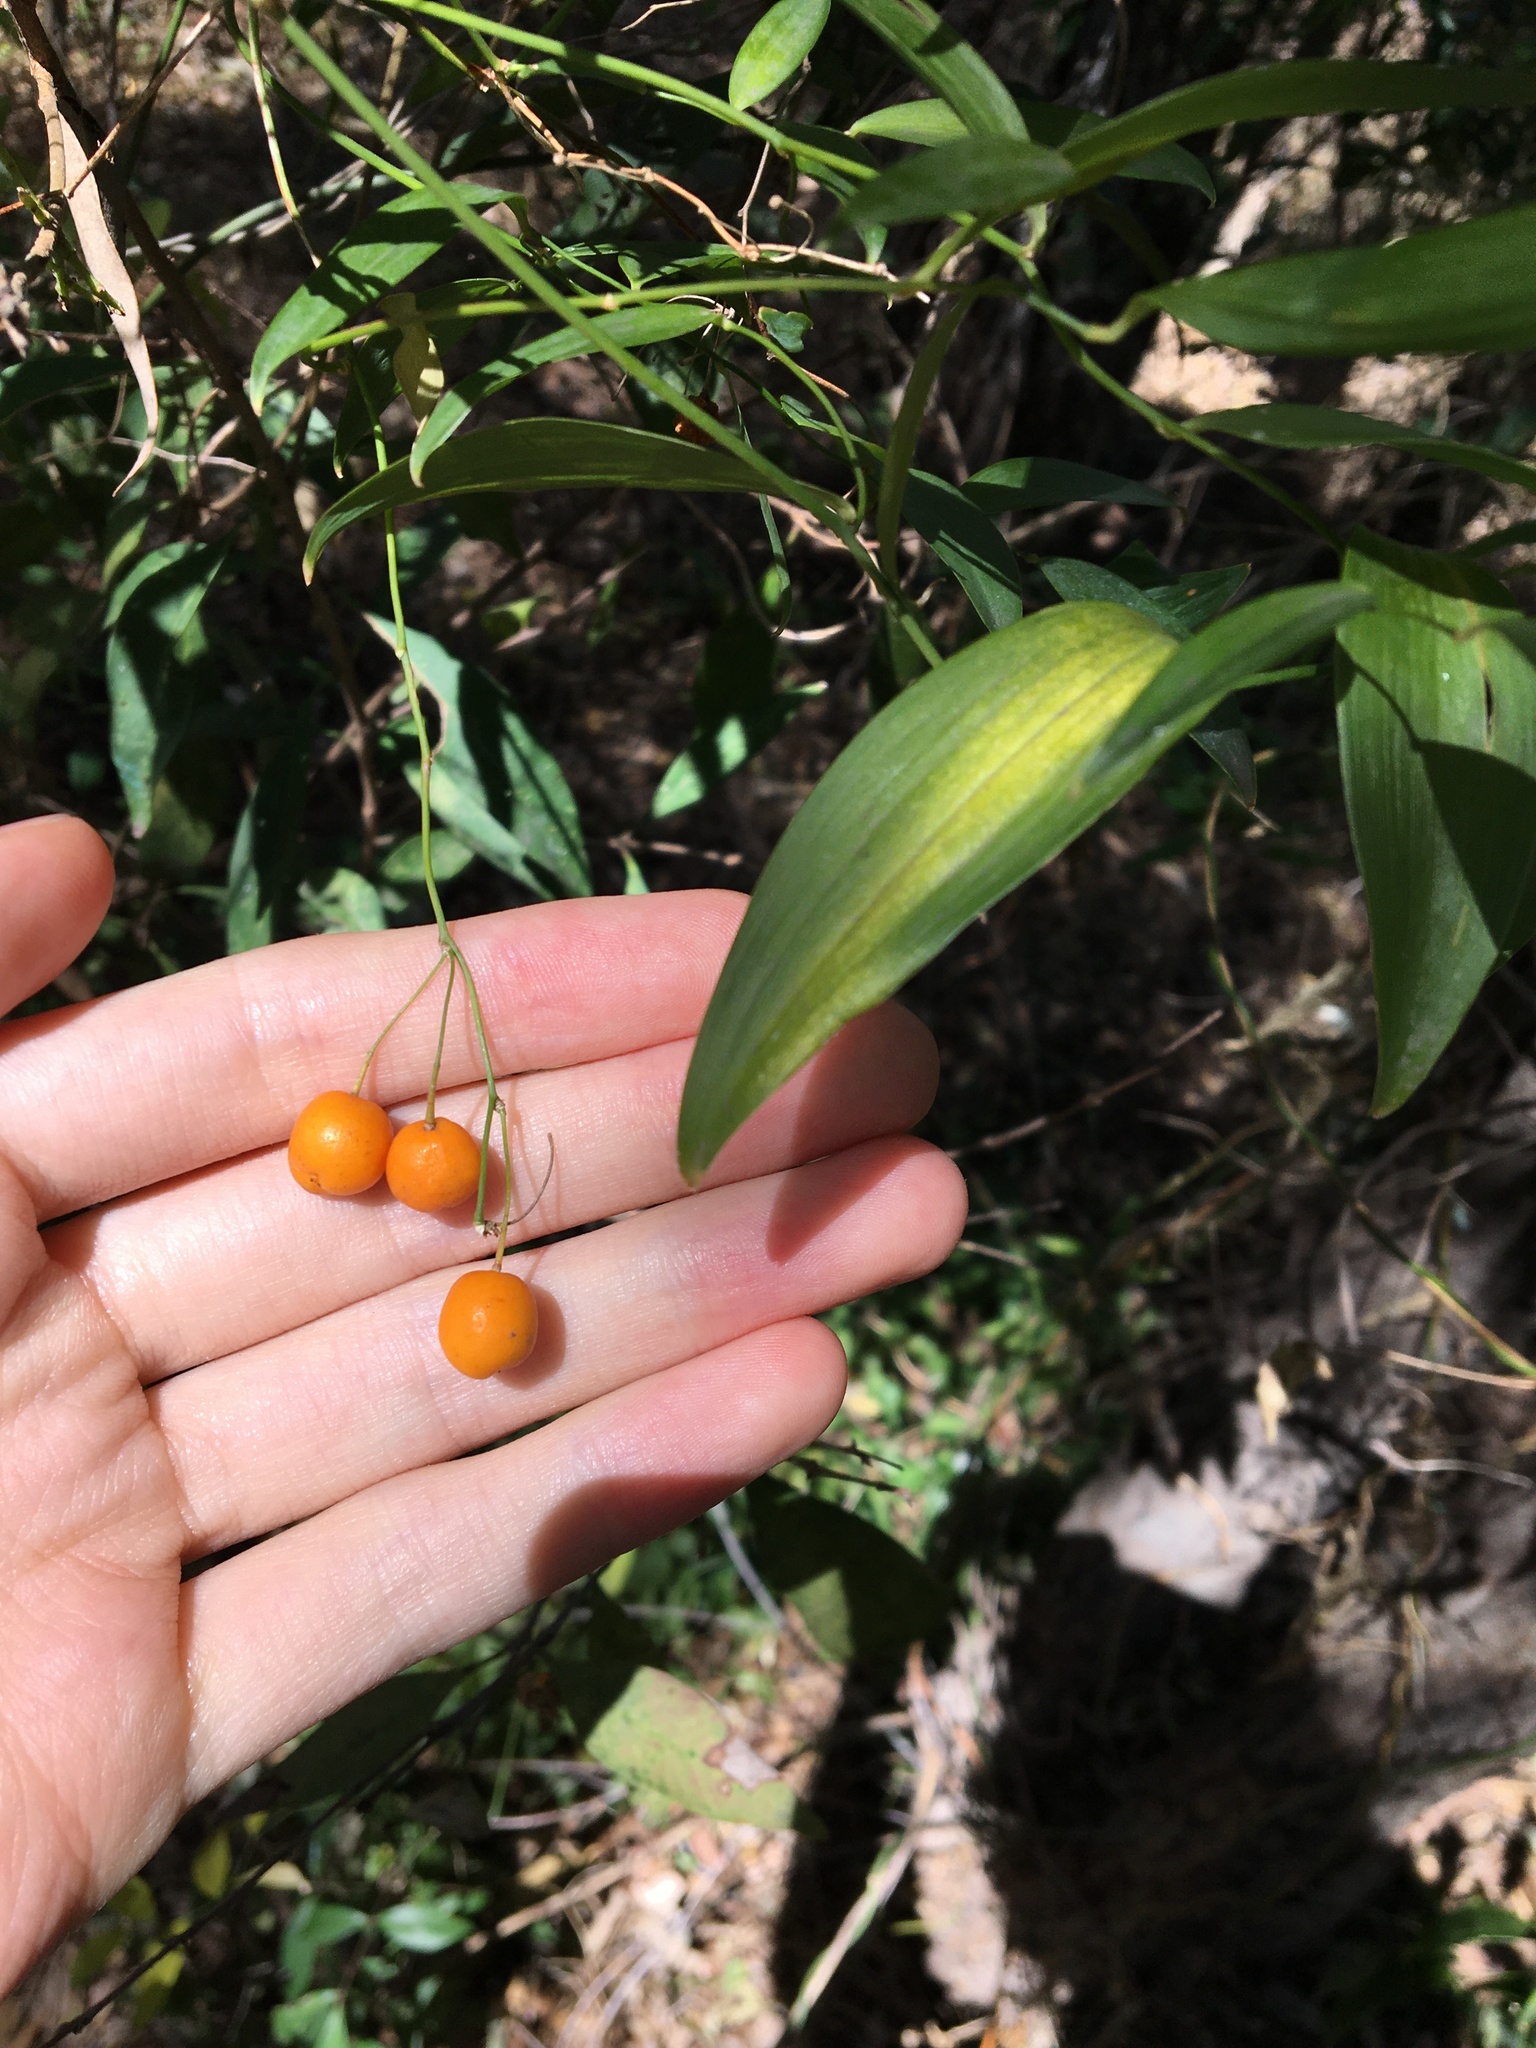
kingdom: Plantae
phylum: Tracheophyta
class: Liliopsida
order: Asparagales
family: Asparagaceae
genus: Eustrephus
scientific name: Eustrephus latifolius
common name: Orangevine
